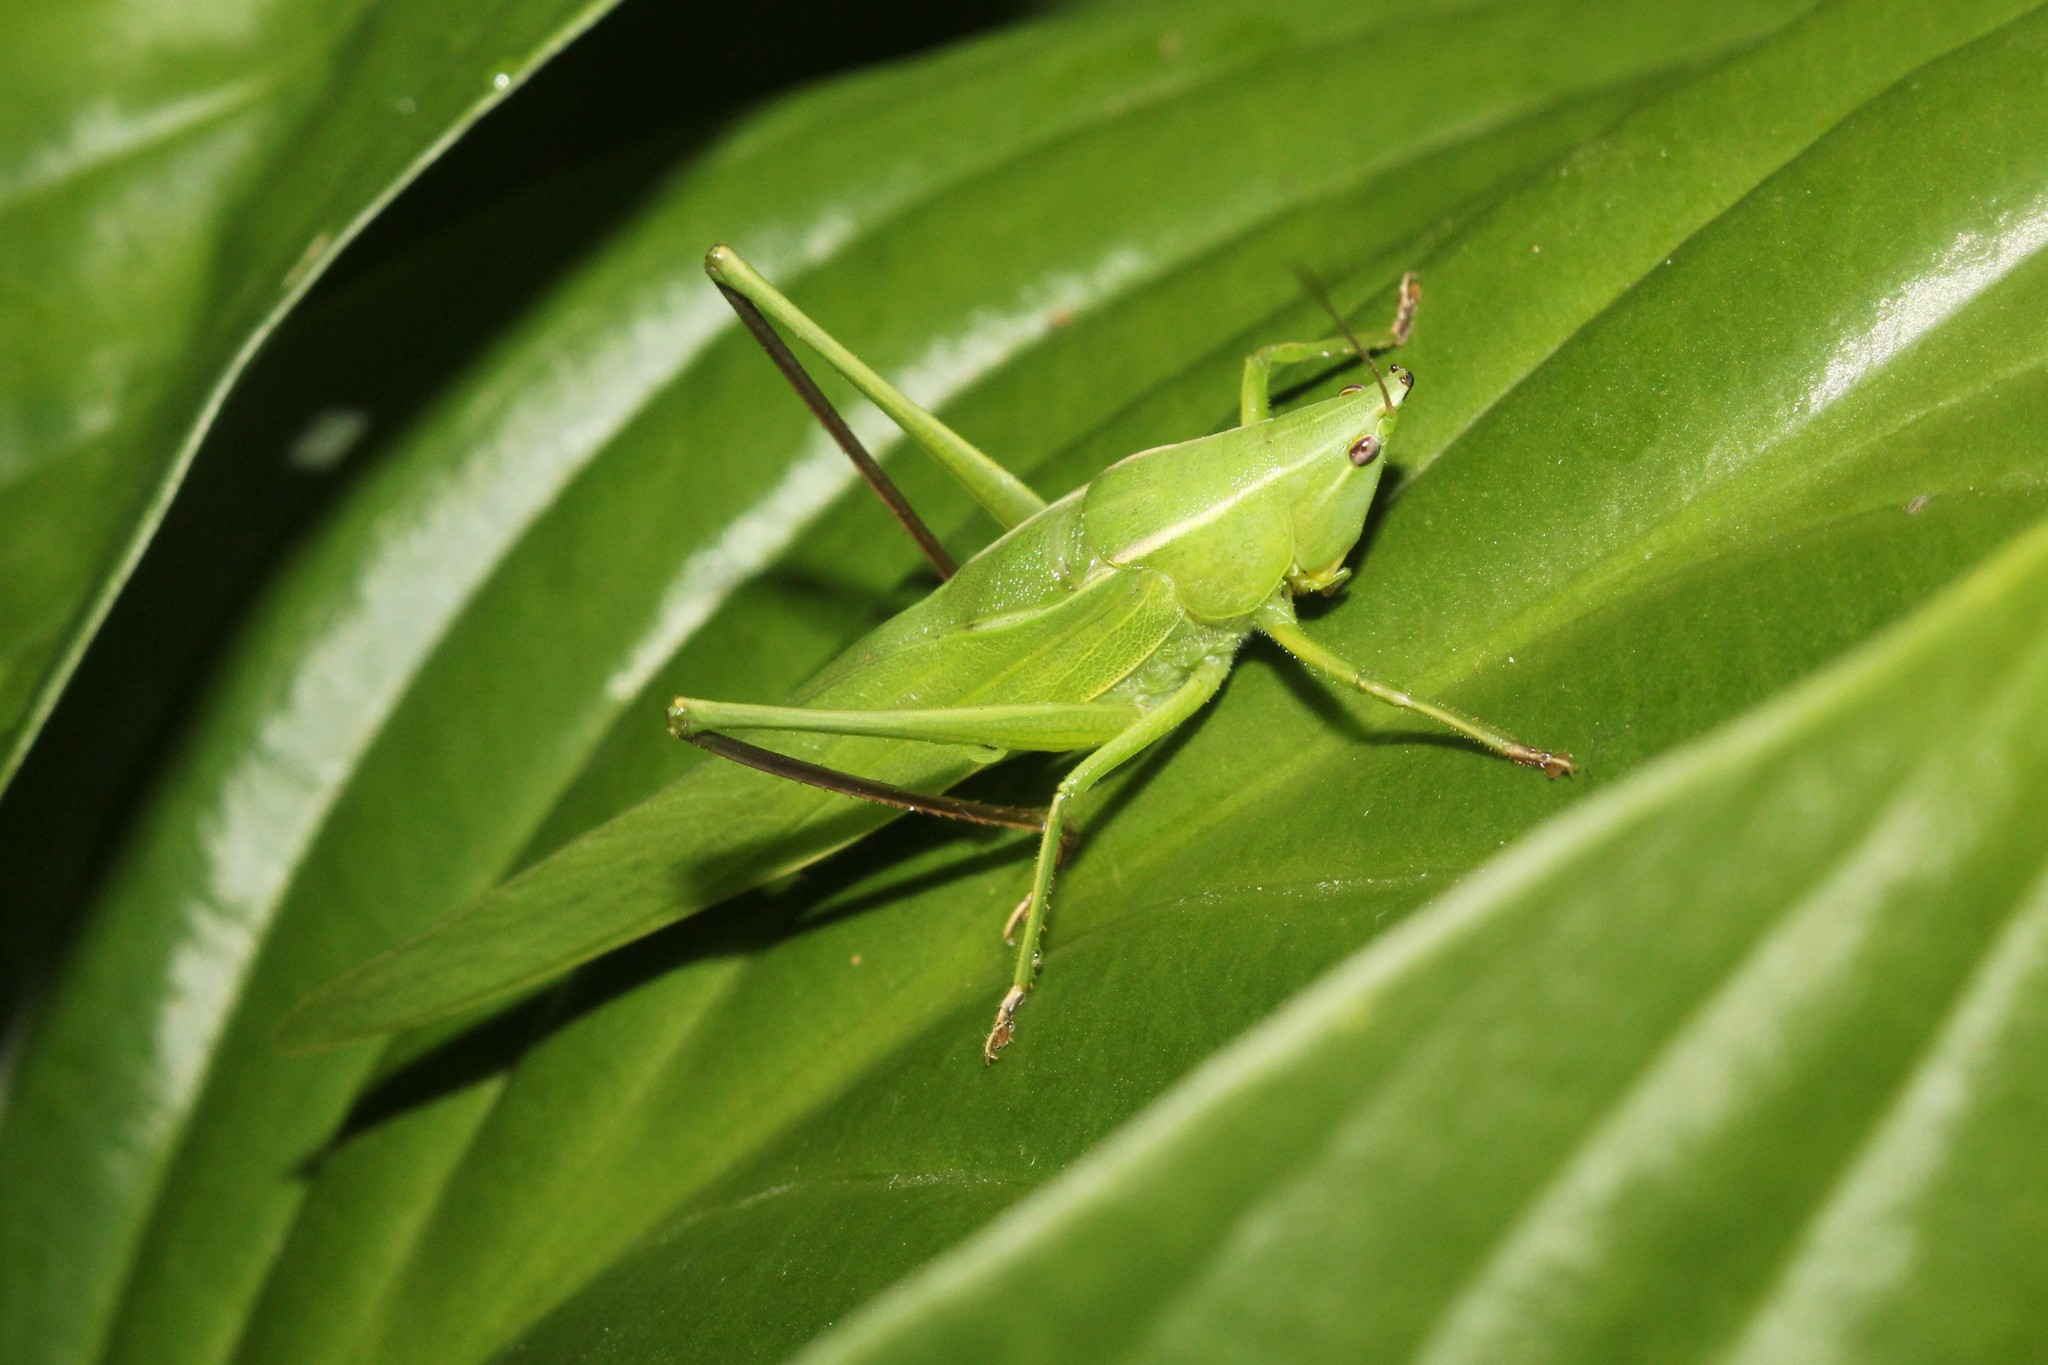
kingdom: Animalia
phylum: Arthropoda
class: Insecta
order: Orthoptera
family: Tettigoniidae
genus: Neoconocephalus
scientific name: Neoconocephalus ensiger
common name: Swordbearer
